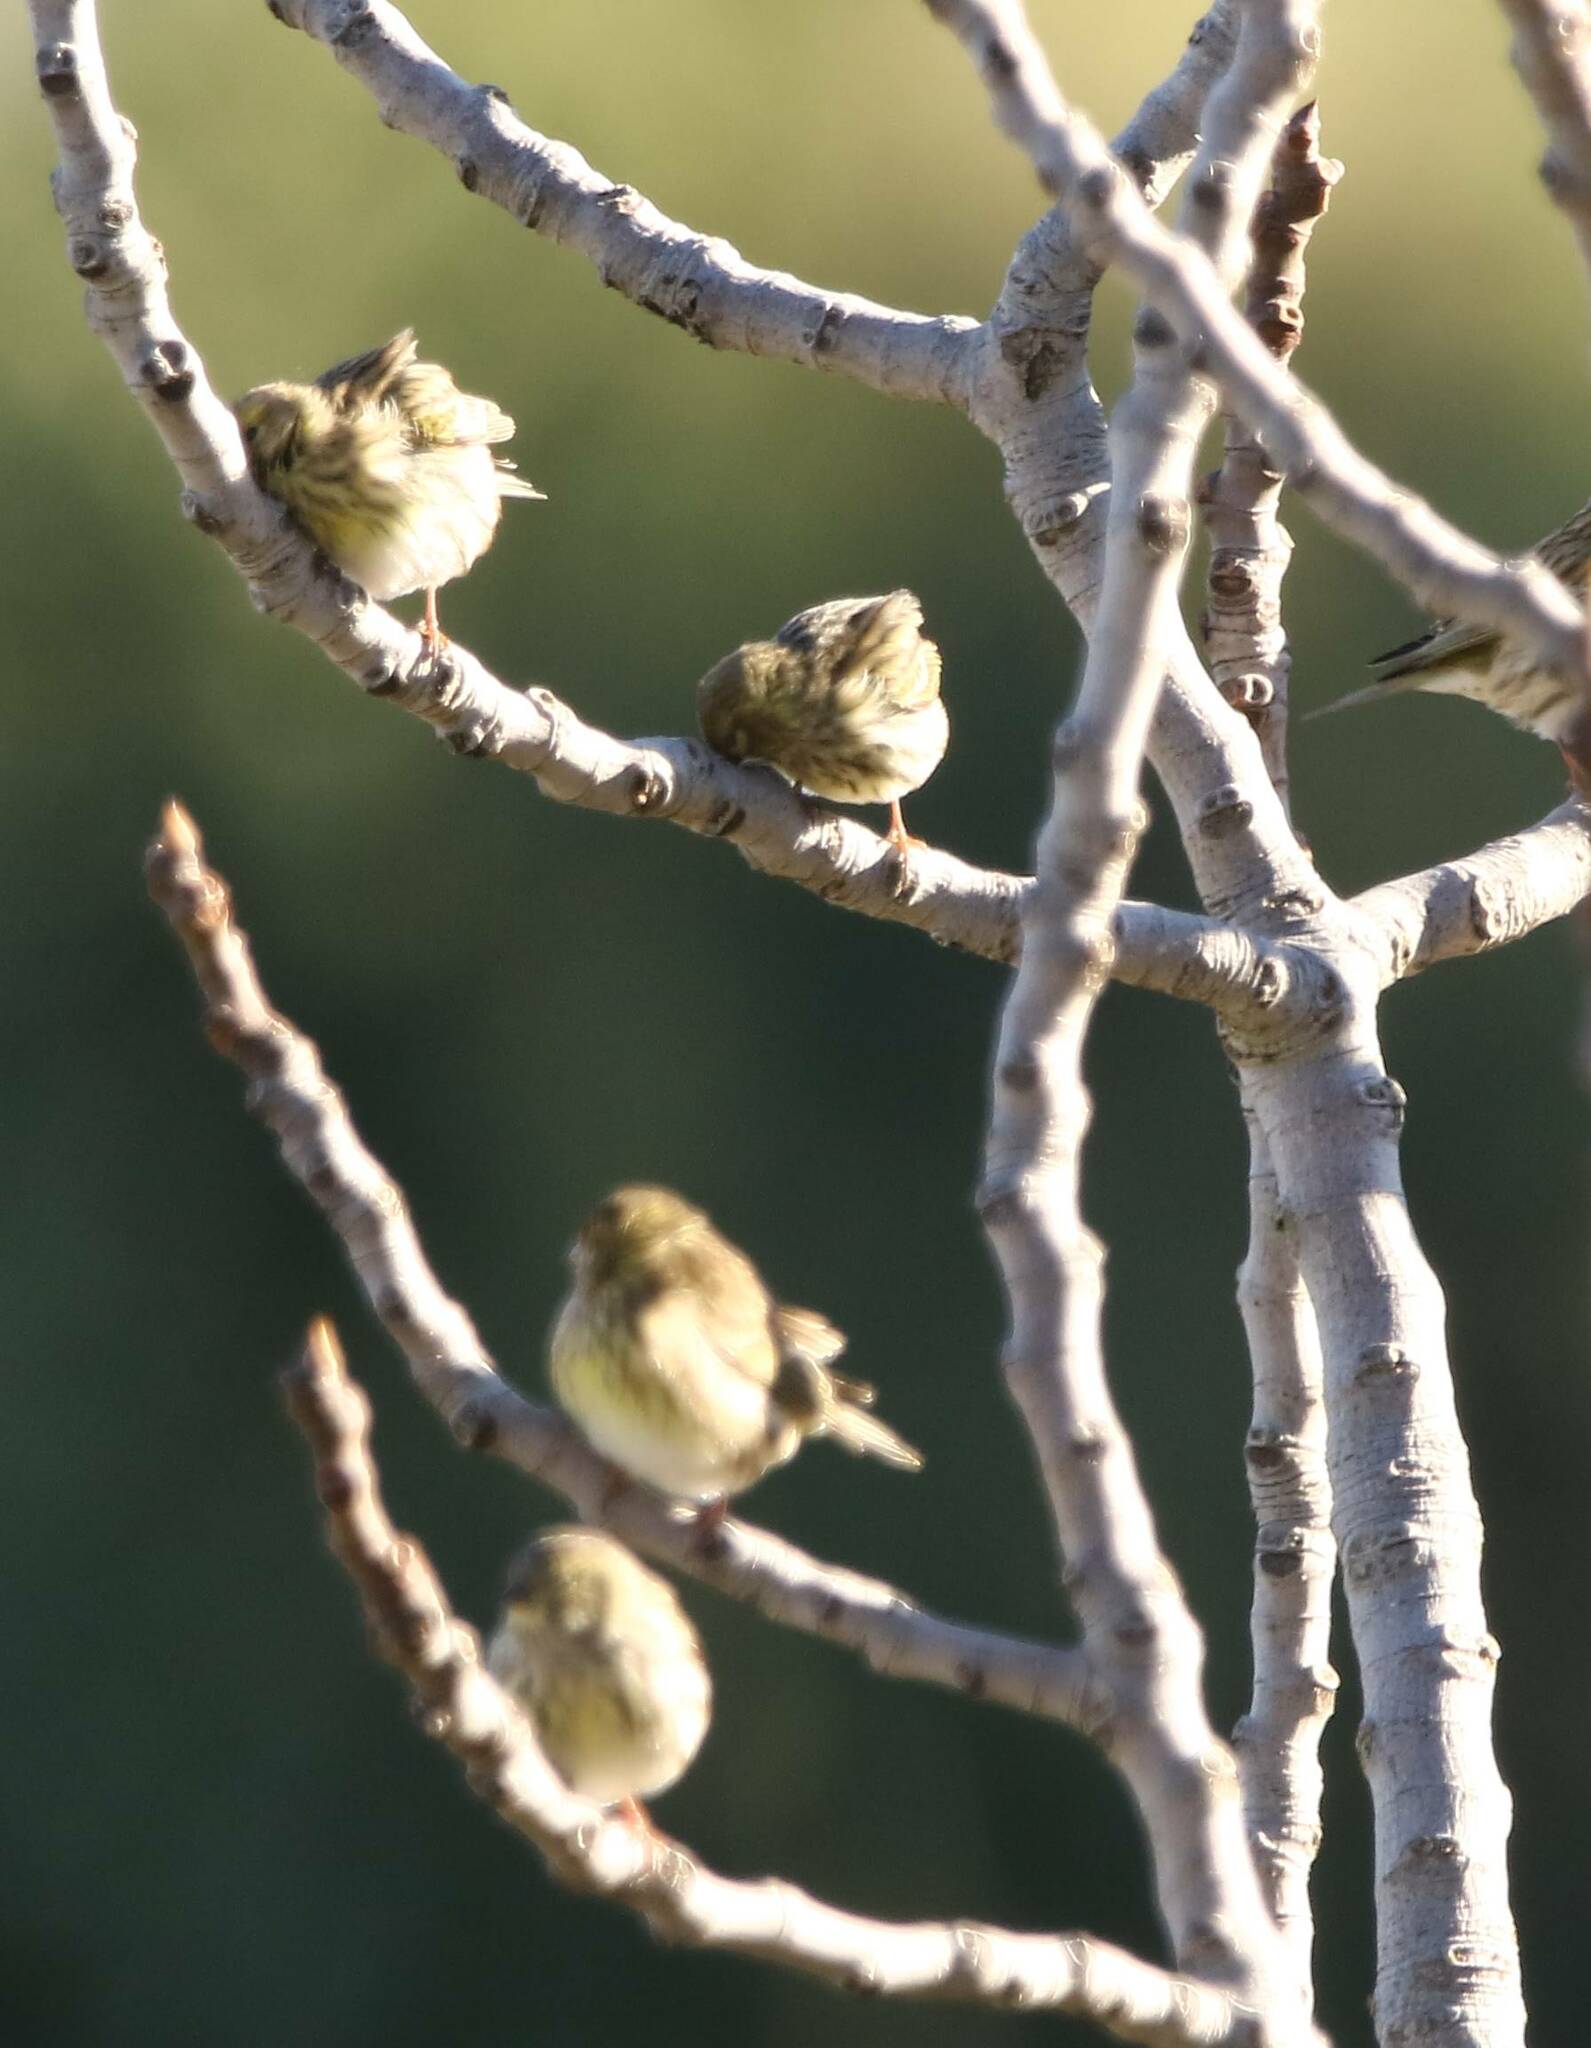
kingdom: Animalia
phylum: Chordata
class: Aves
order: Passeriformes
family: Fringillidae
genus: Serinus
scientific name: Serinus serinus
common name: European serin
